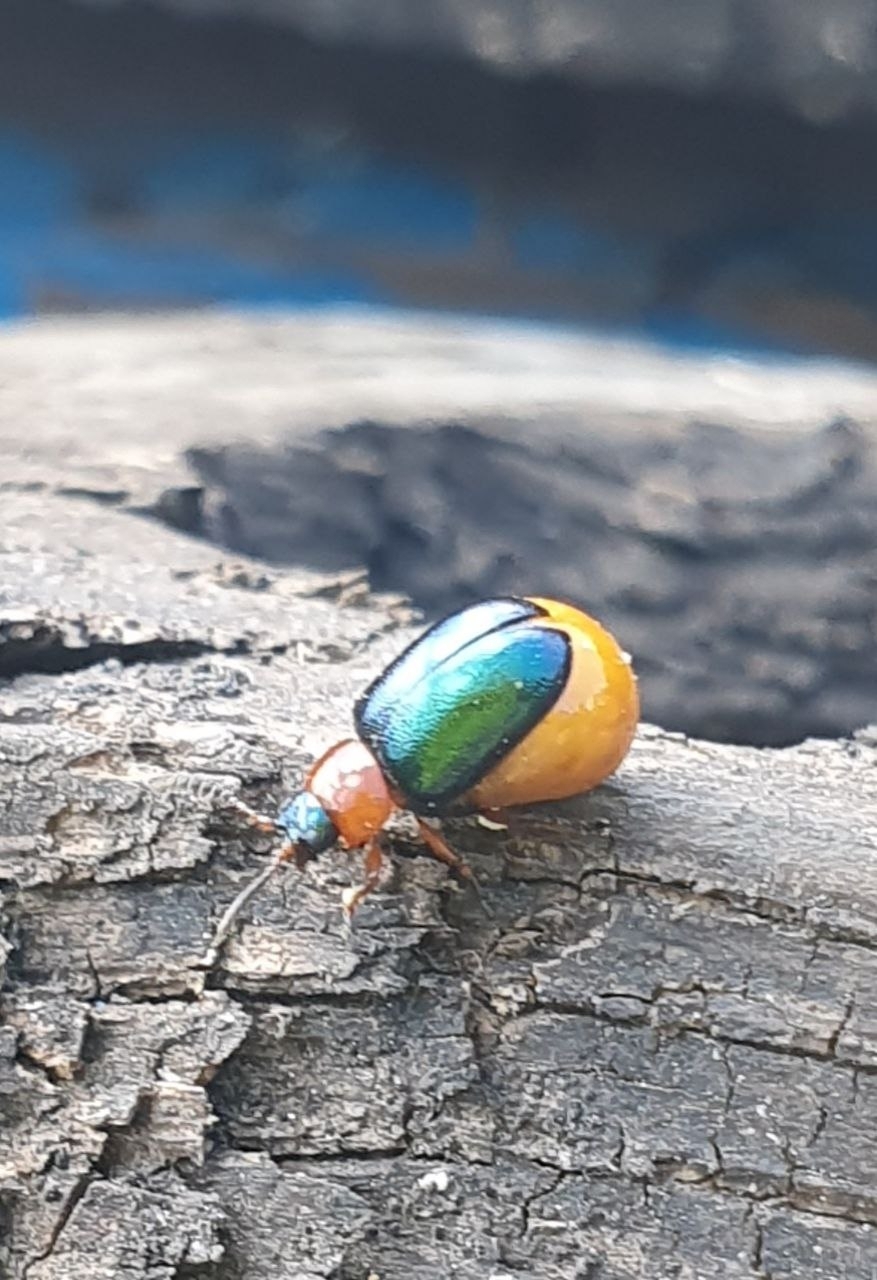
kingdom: Animalia
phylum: Arthropoda
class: Insecta
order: Coleoptera
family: Chrysomelidae
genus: Gastrophysa
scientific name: Gastrophysa polygoni
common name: Knotweed leaf beetle
